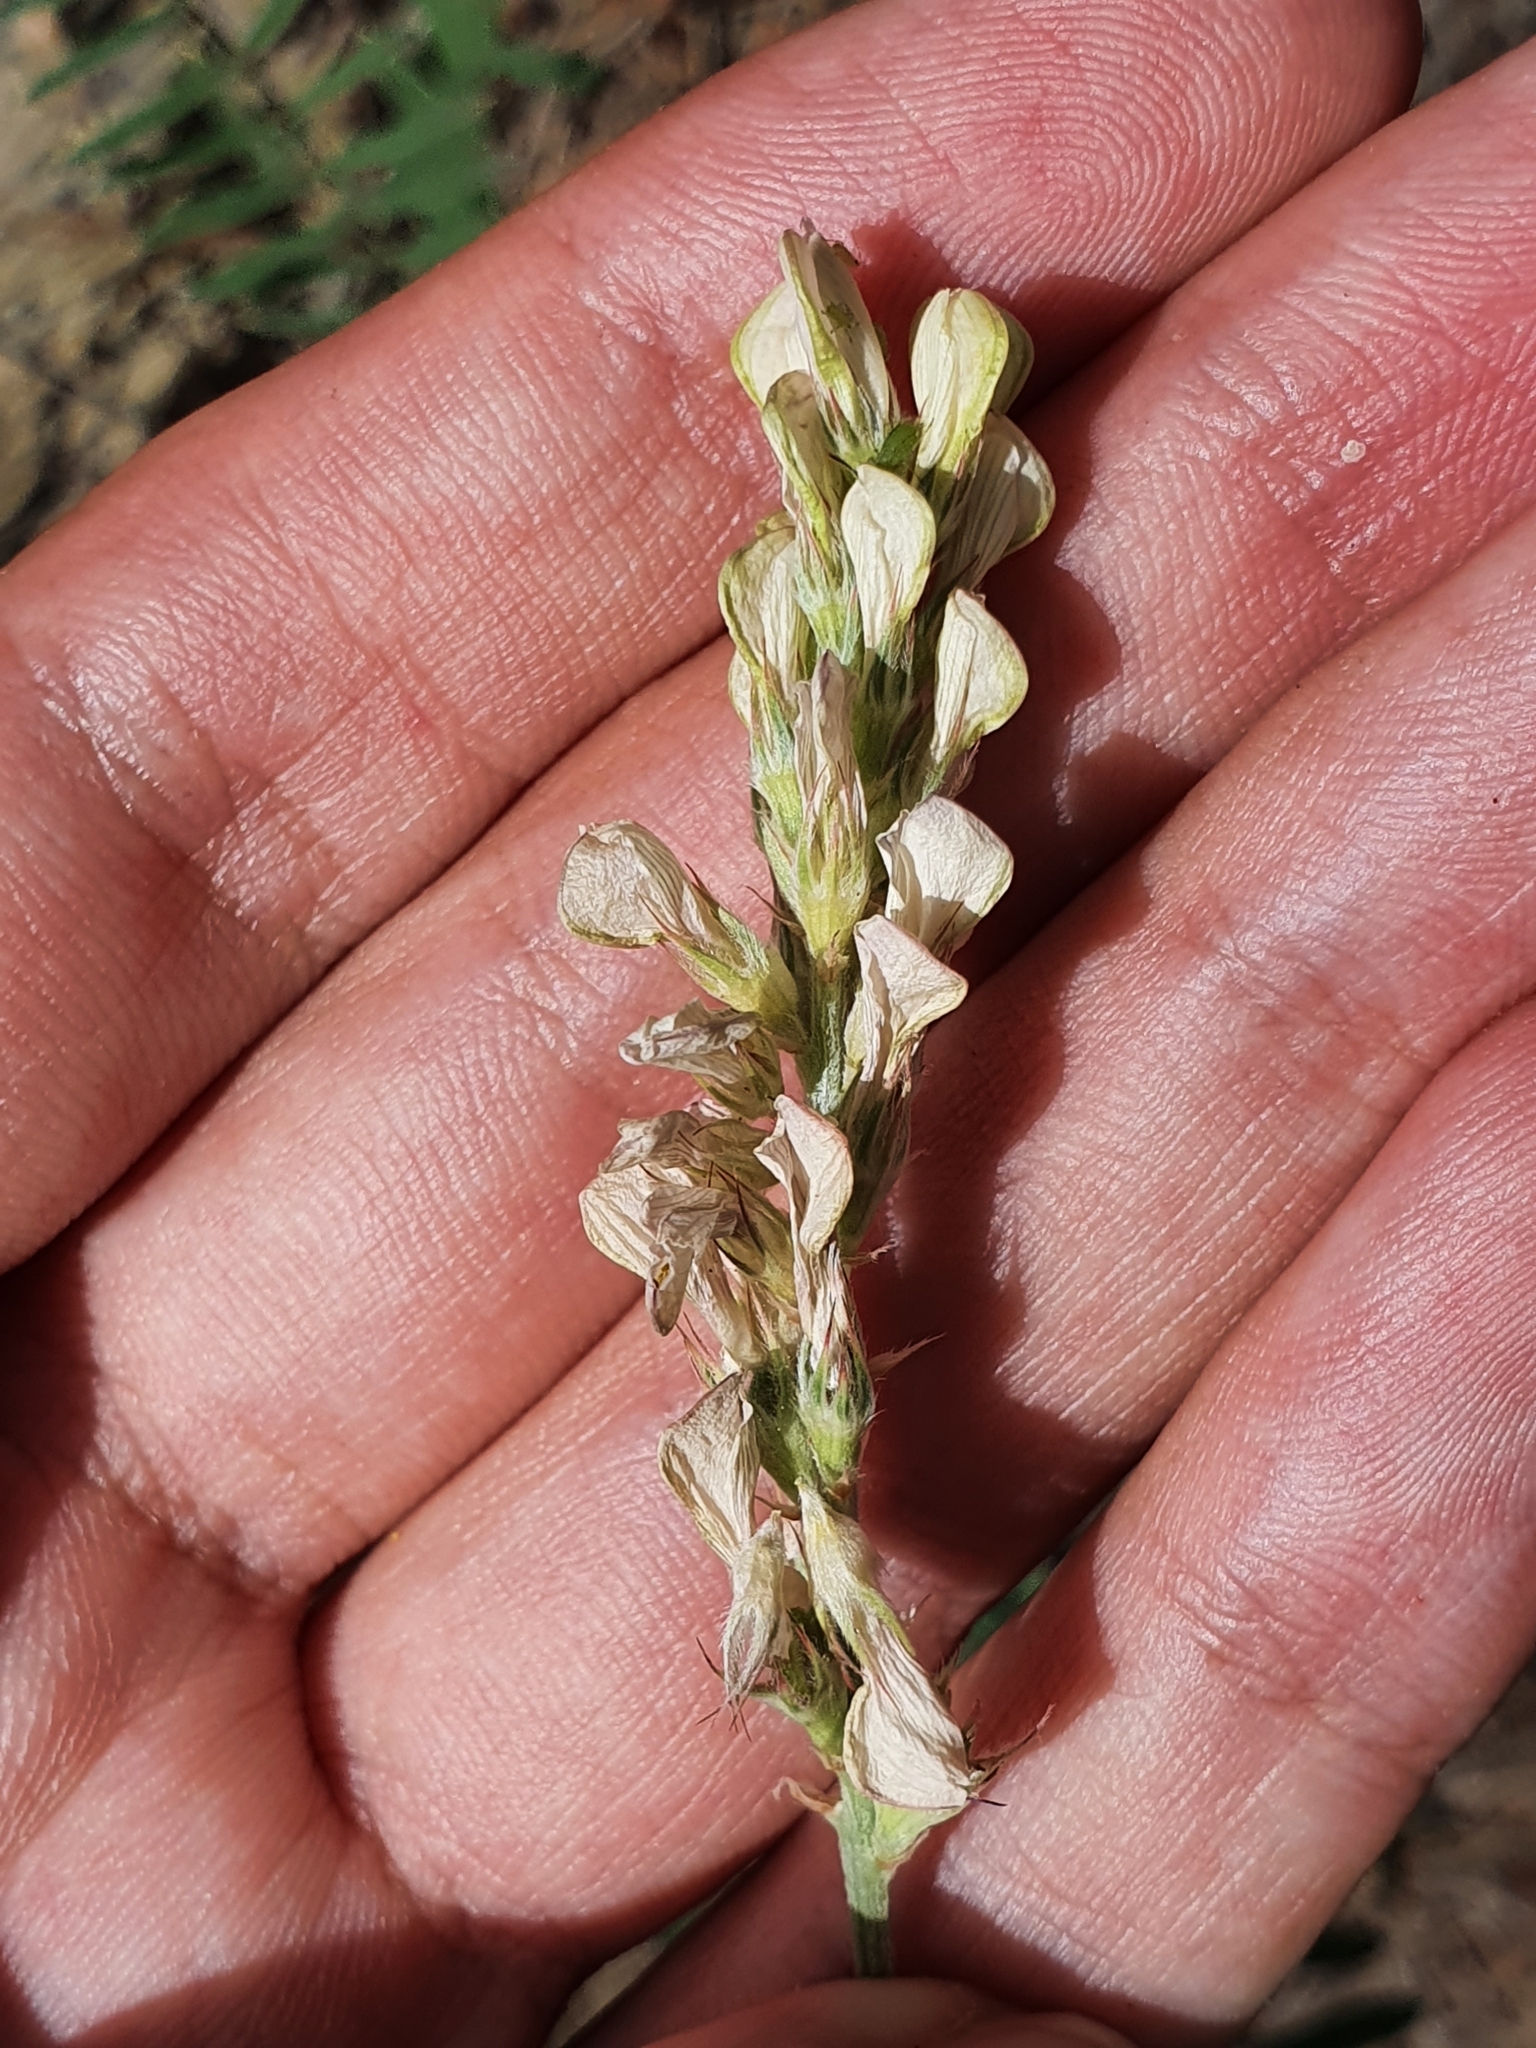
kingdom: Plantae
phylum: Tracheophyta
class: Magnoliopsida
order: Fabales
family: Fabaceae
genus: Onobrychis
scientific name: Onobrychis alba
